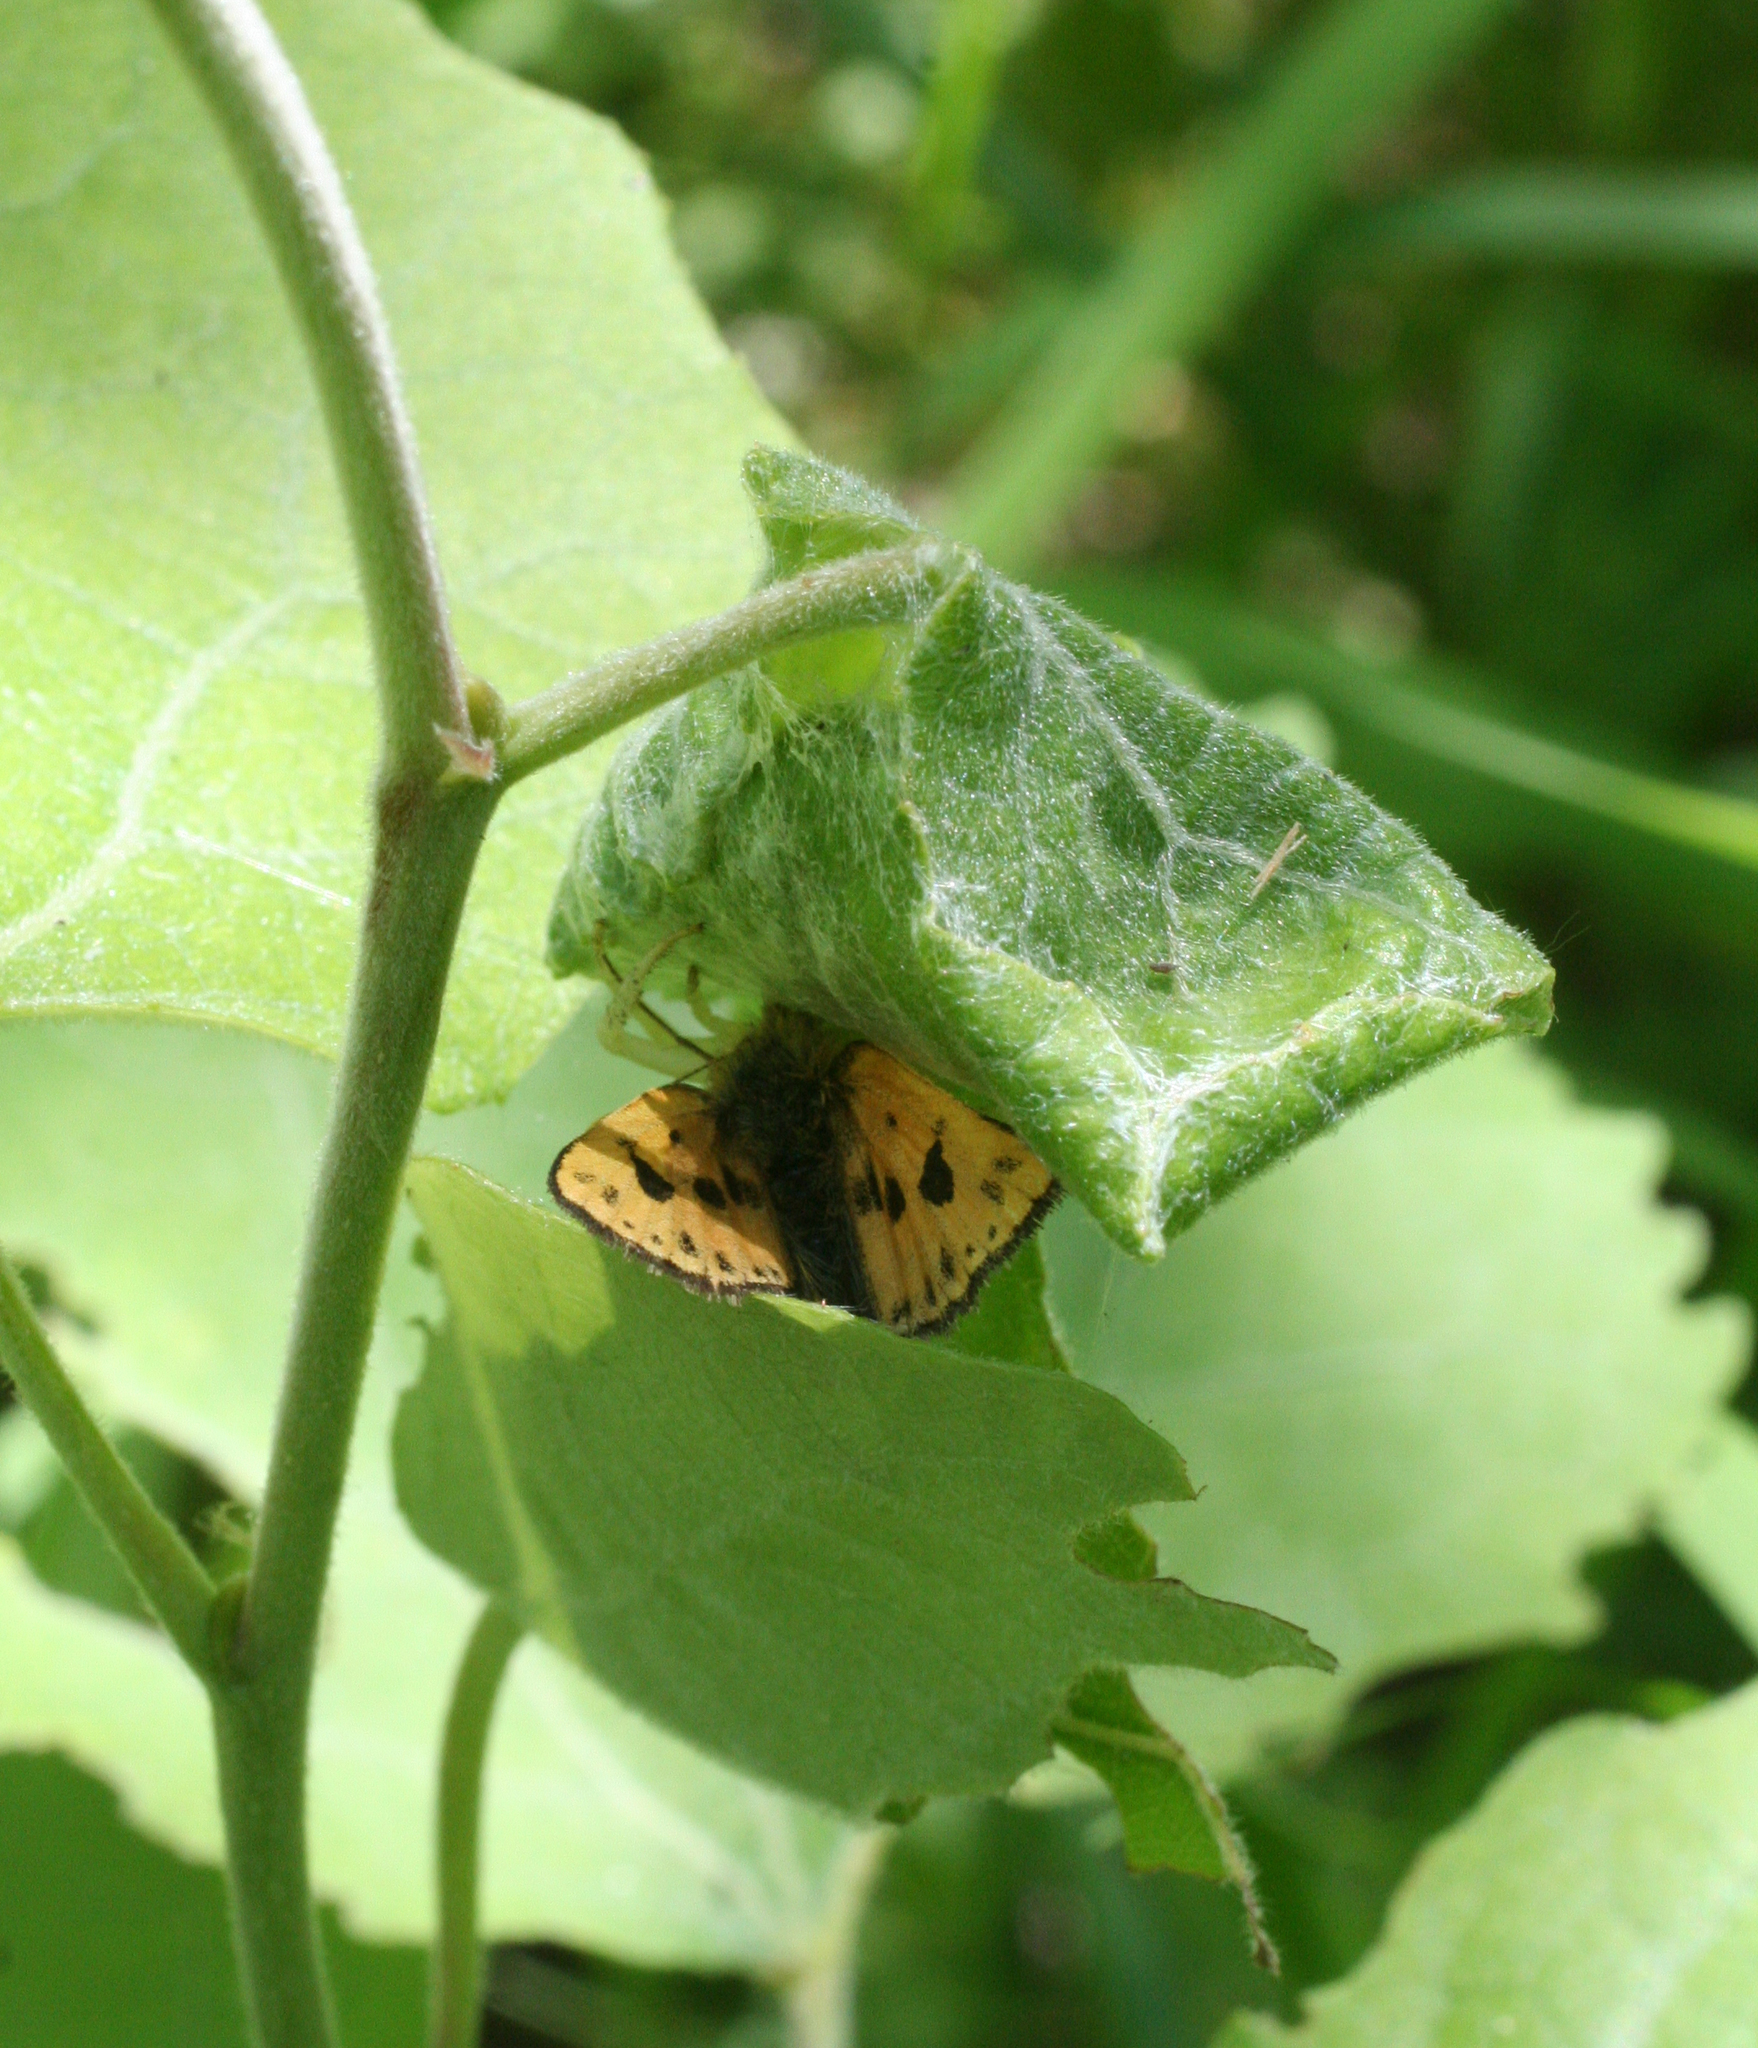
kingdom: Animalia
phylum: Arthropoda
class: Insecta
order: Lepidoptera
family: Hesperiidae
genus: Carterocephalus
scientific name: Carterocephalus silvicola
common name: Northern chequered skipper
